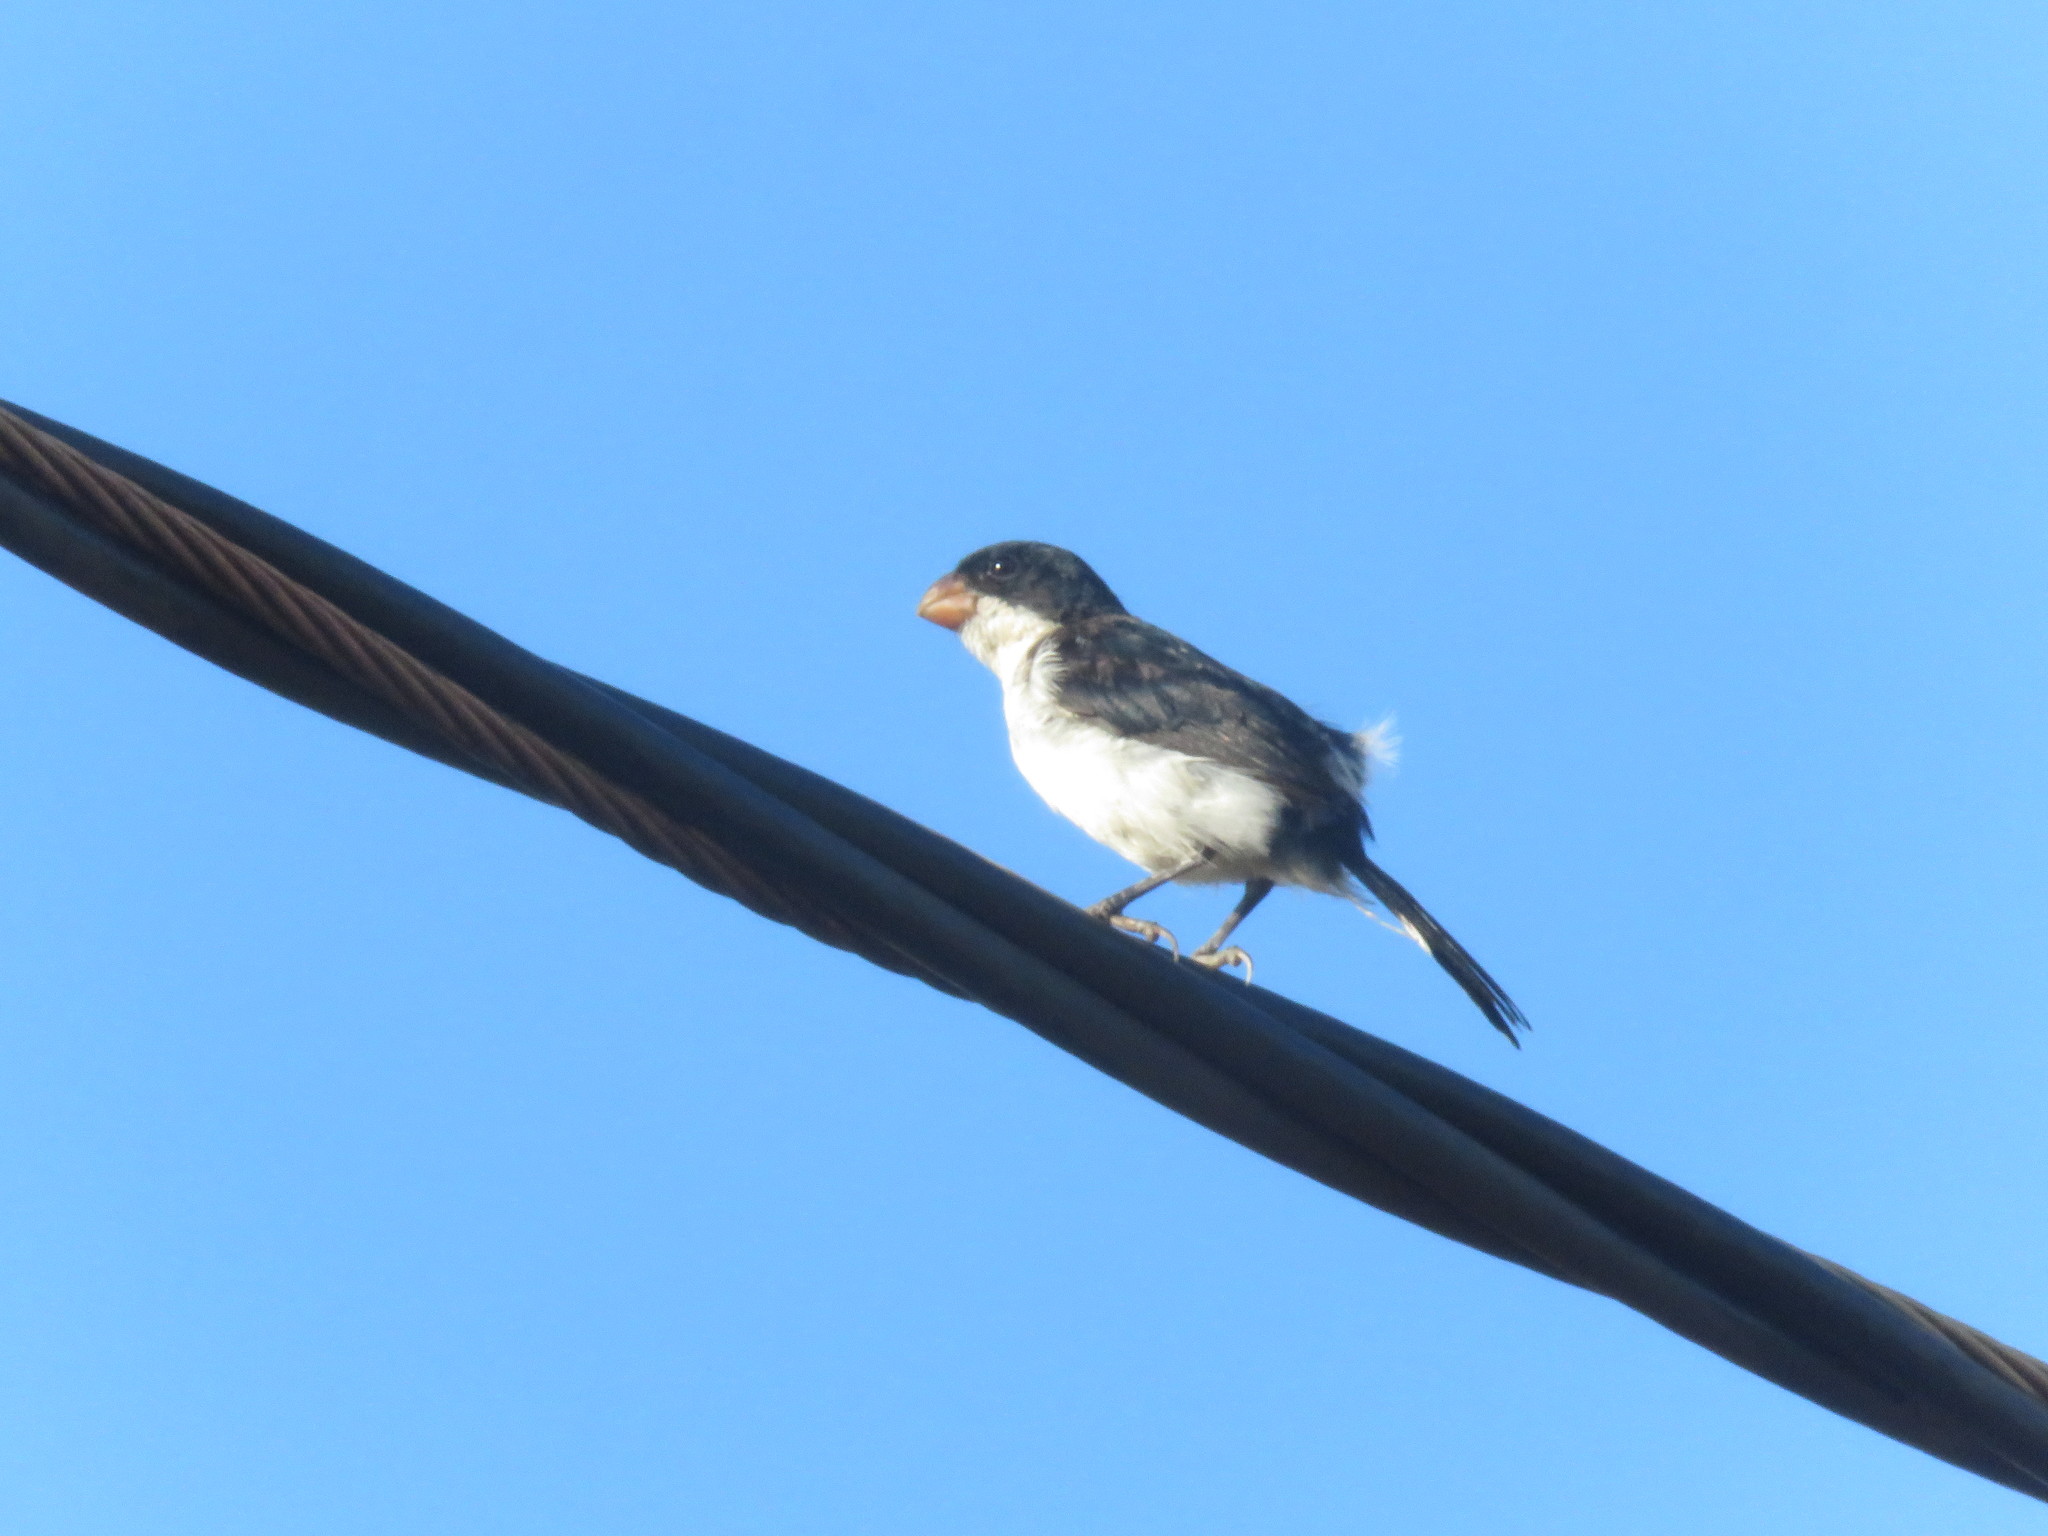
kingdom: Animalia
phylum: Chordata
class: Aves
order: Passeriformes
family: Thraupidae
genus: Sporophila
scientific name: Sporophila leucoptera
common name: White-bellied seedeater
